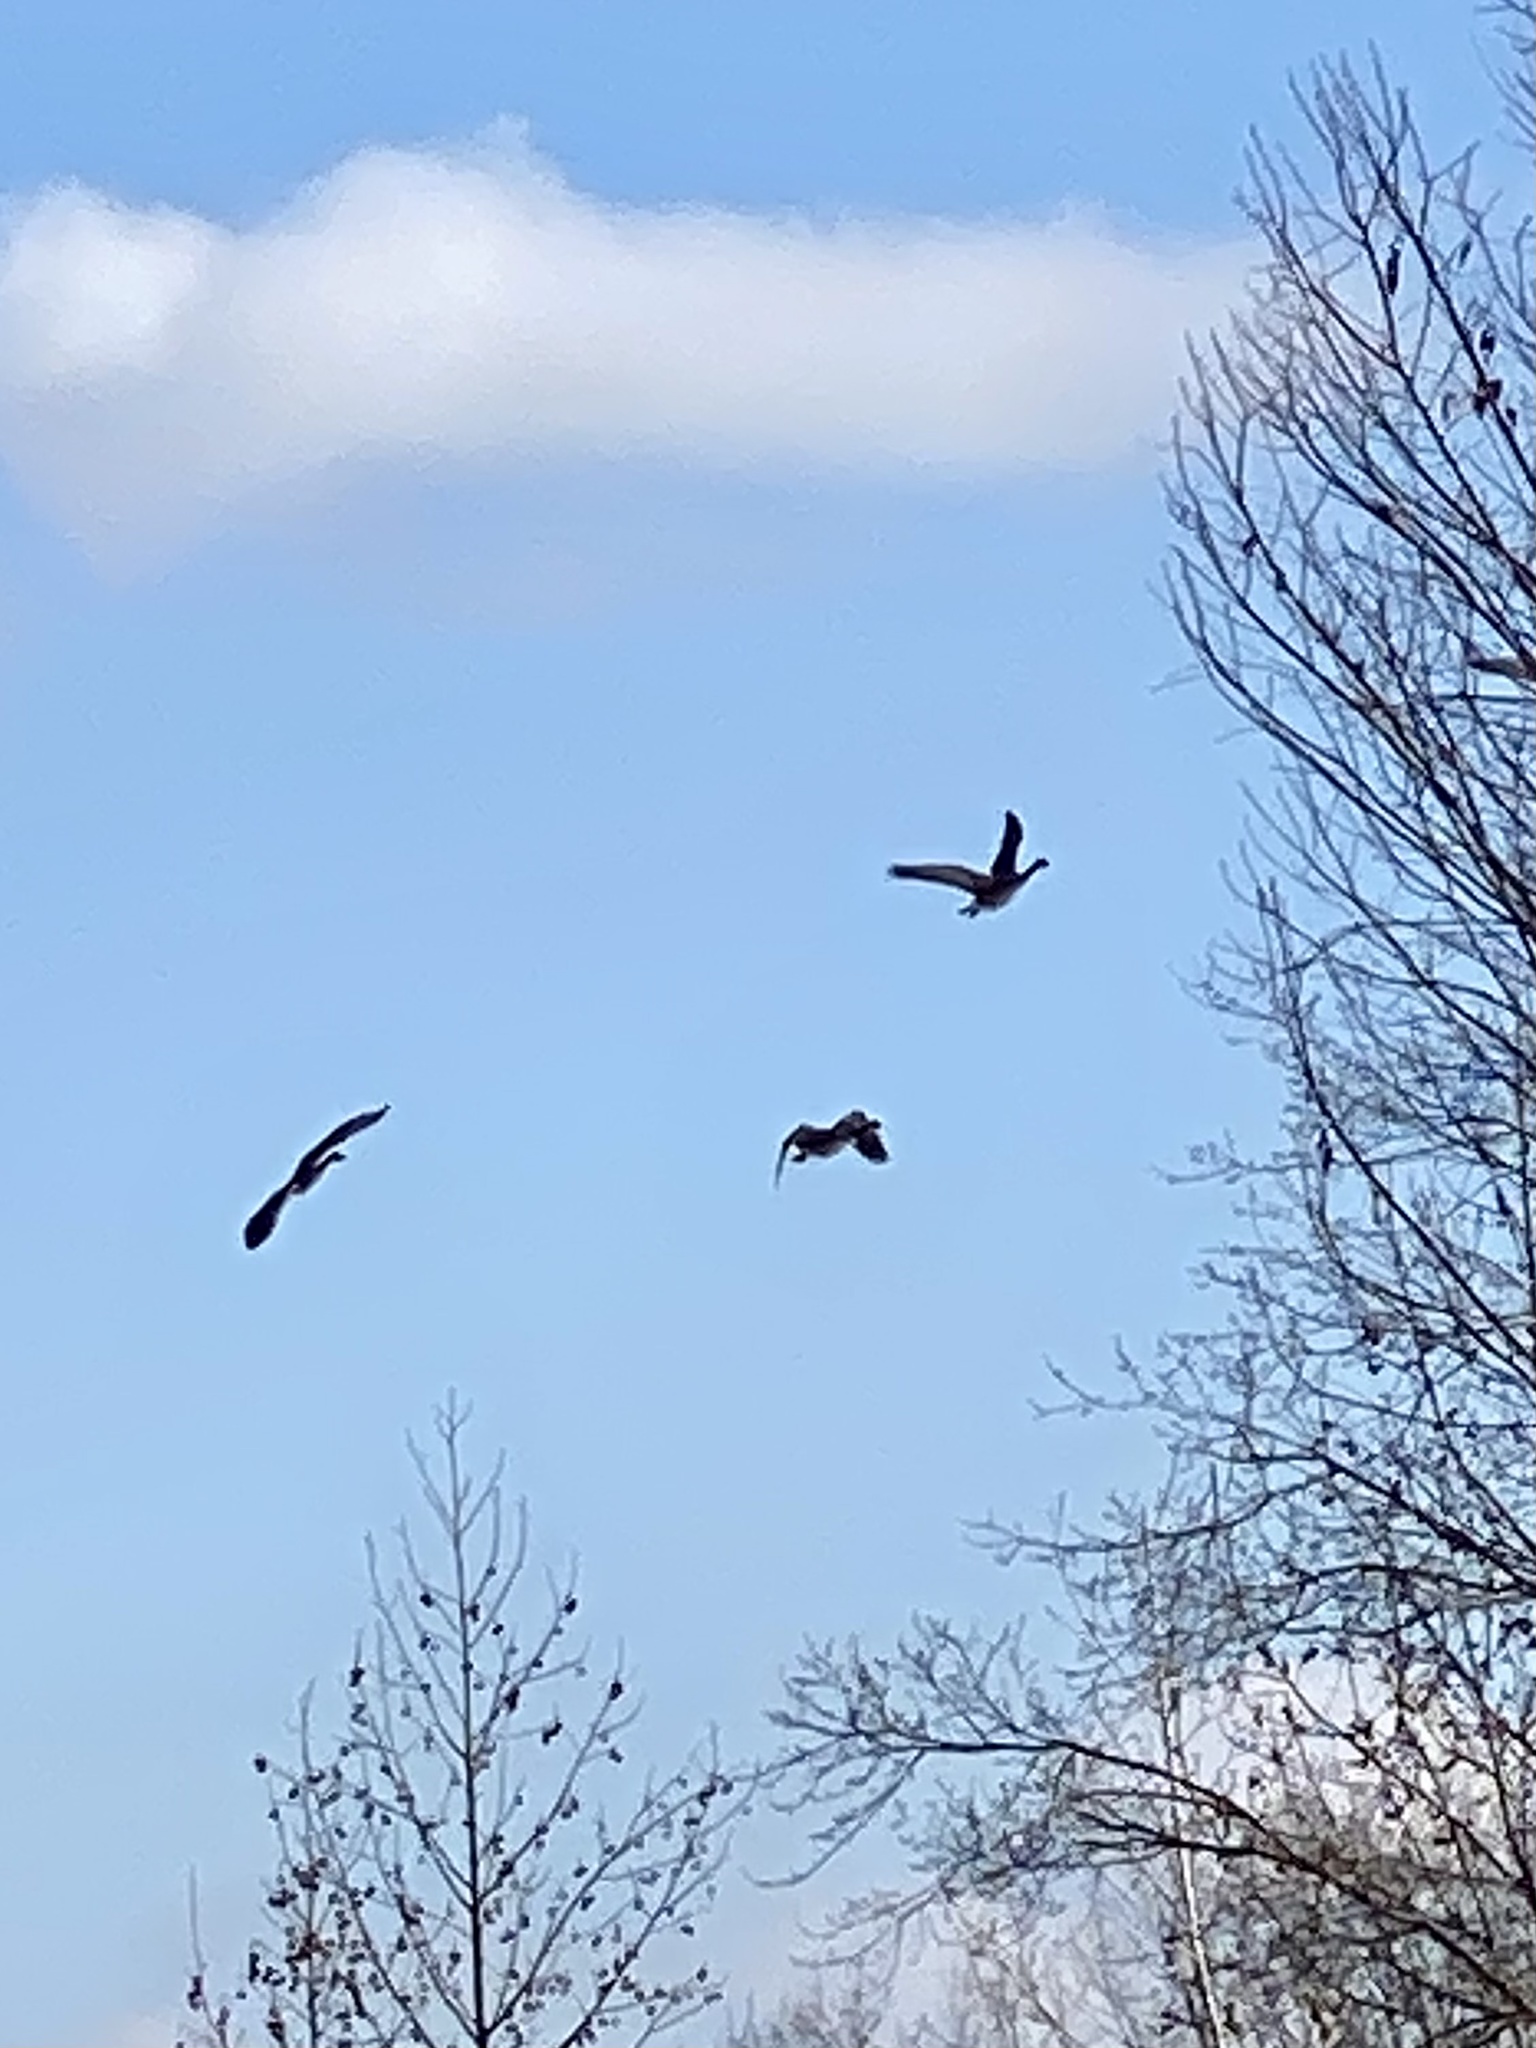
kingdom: Animalia
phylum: Chordata
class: Aves
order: Anseriformes
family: Anatidae
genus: Branta
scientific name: Branta canadensis
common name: Canada goose
